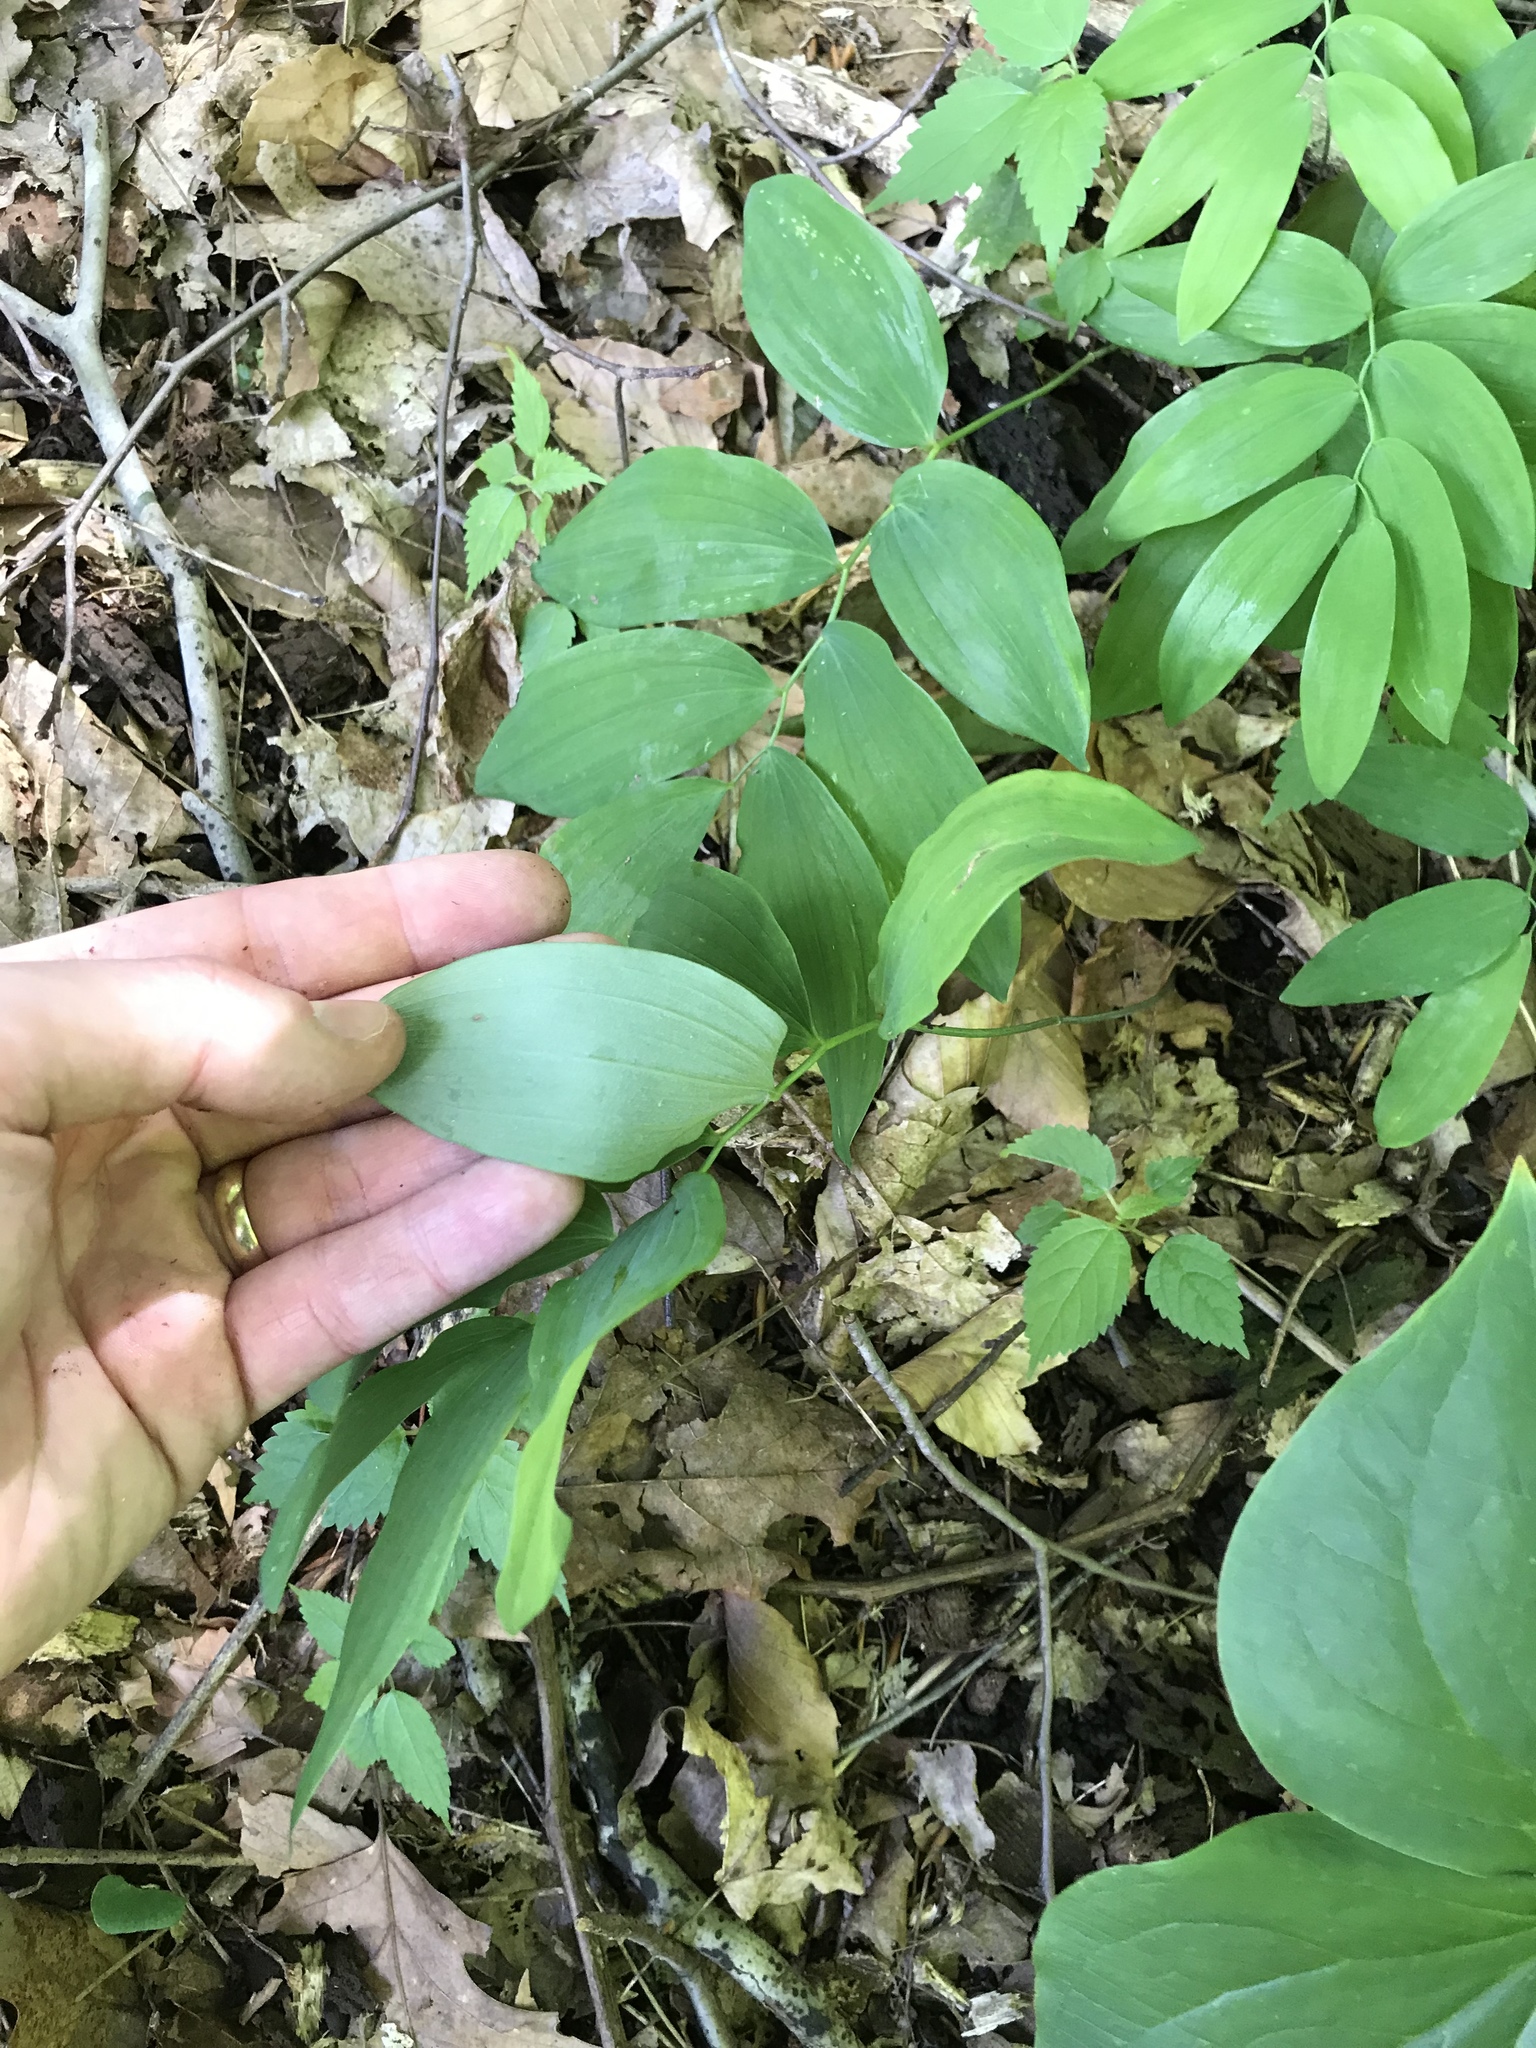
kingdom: Plantae
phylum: Tracheophyta
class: Liliopsida
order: Asparagales
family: Asparagaceae
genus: Polygonatum
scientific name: Polygonatum pubescens
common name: Downy solomon's seal
